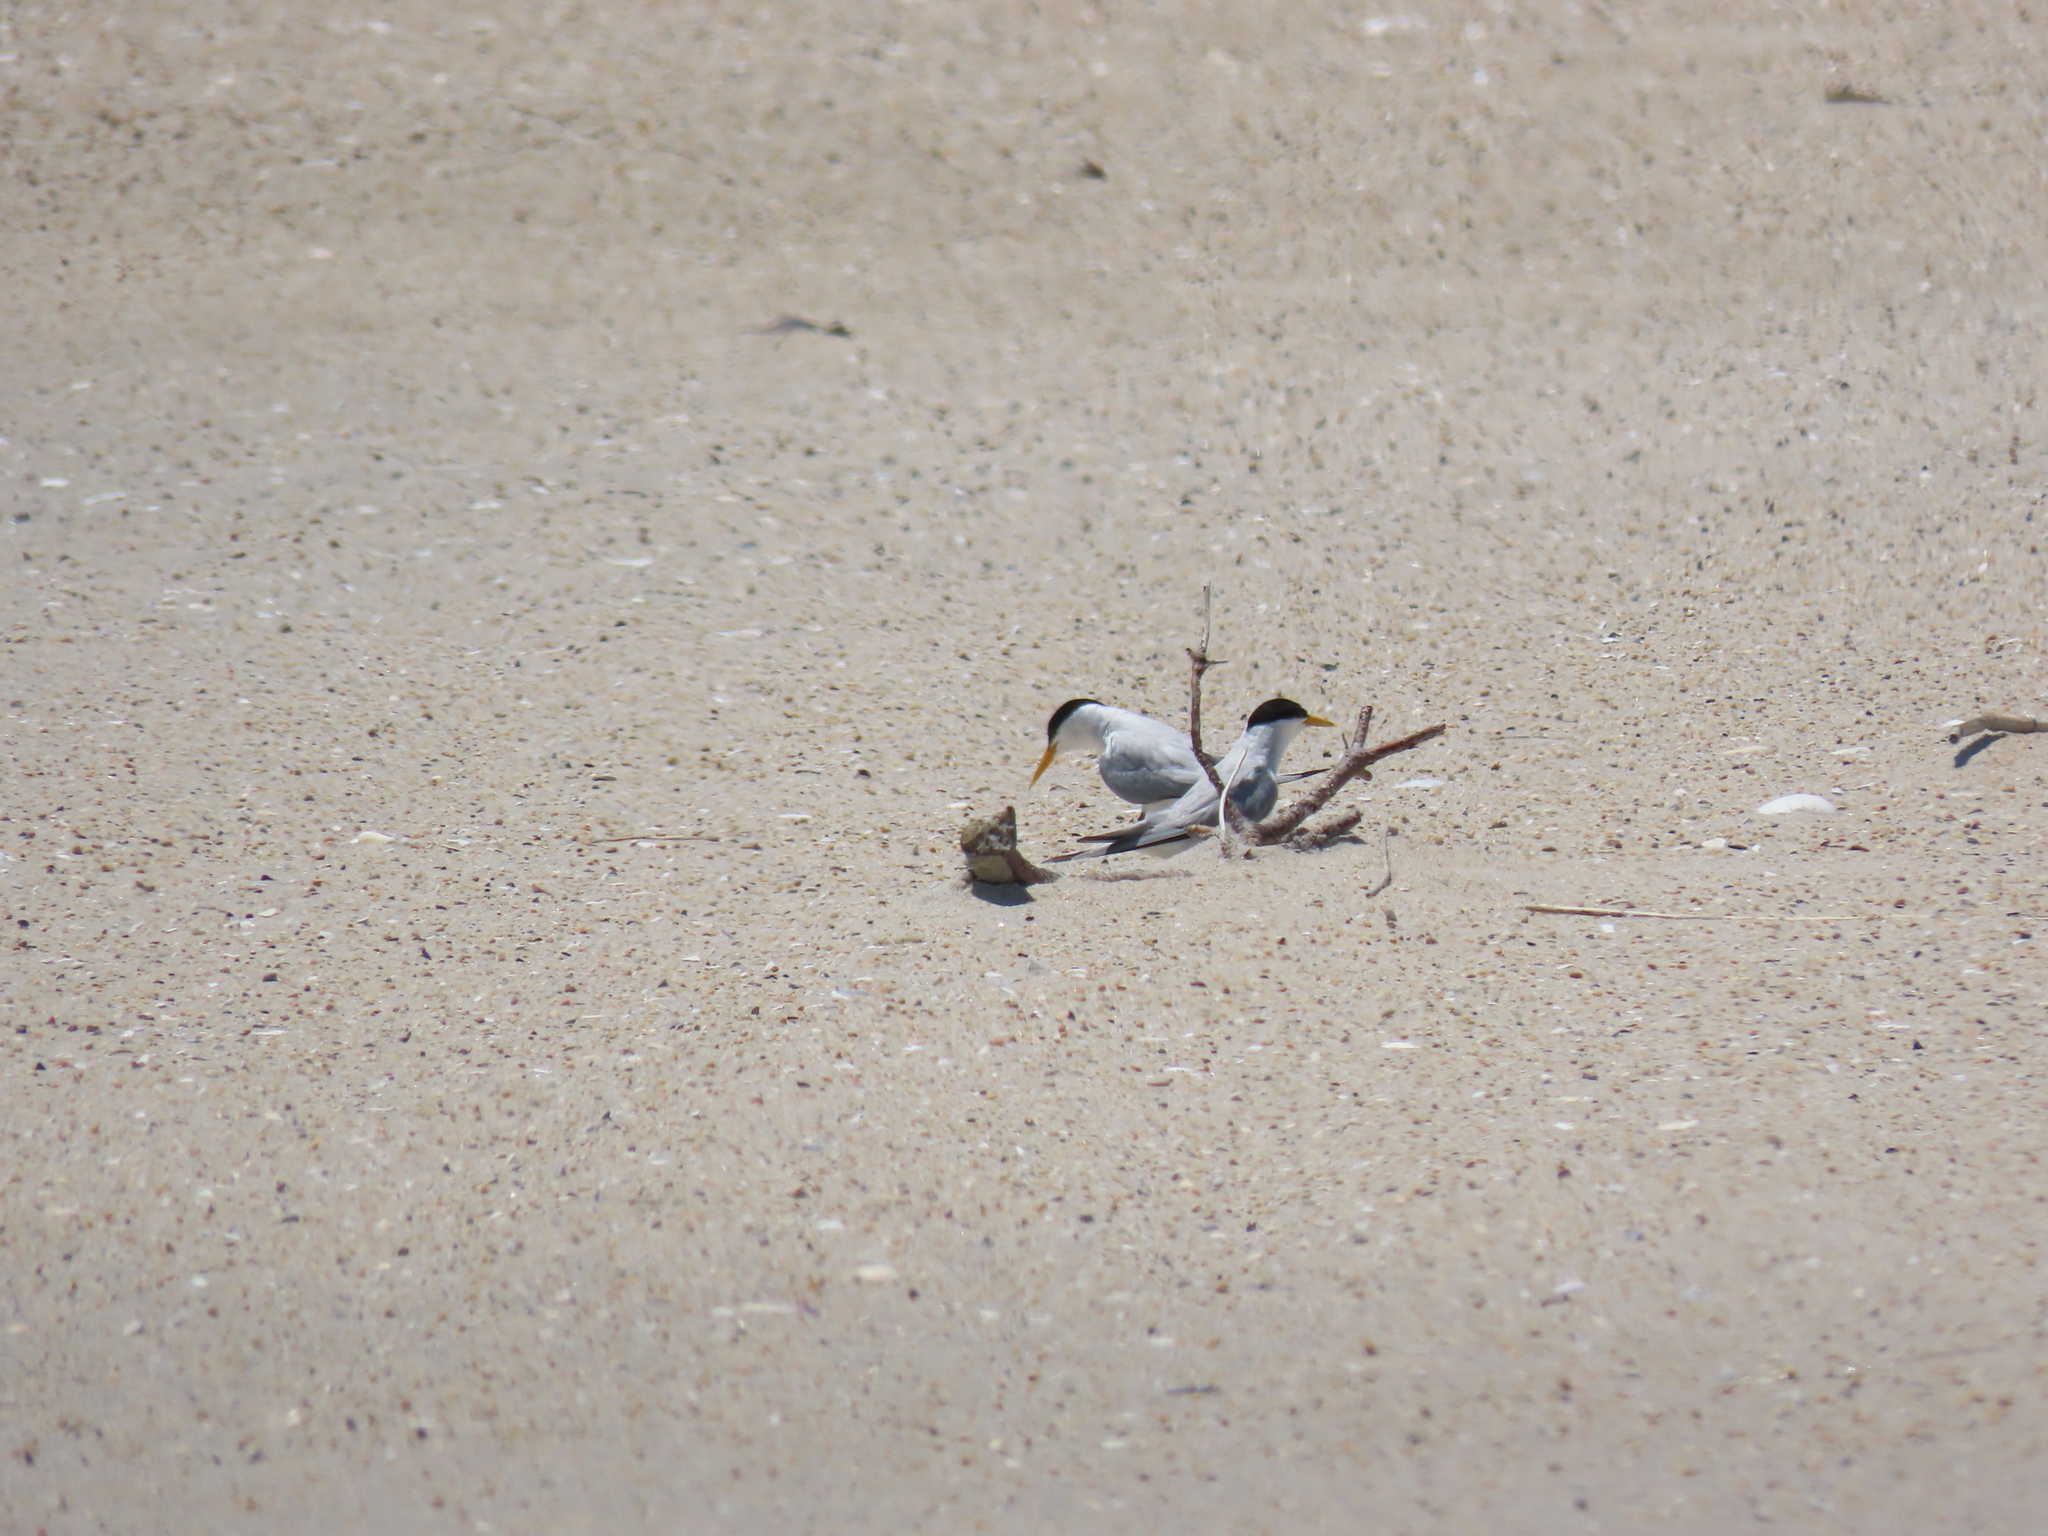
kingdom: Animalia
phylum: Chordata
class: Aves
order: Charadriiformes
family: Laridae
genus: Sternula
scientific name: Sternula antillarum
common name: Least tern
